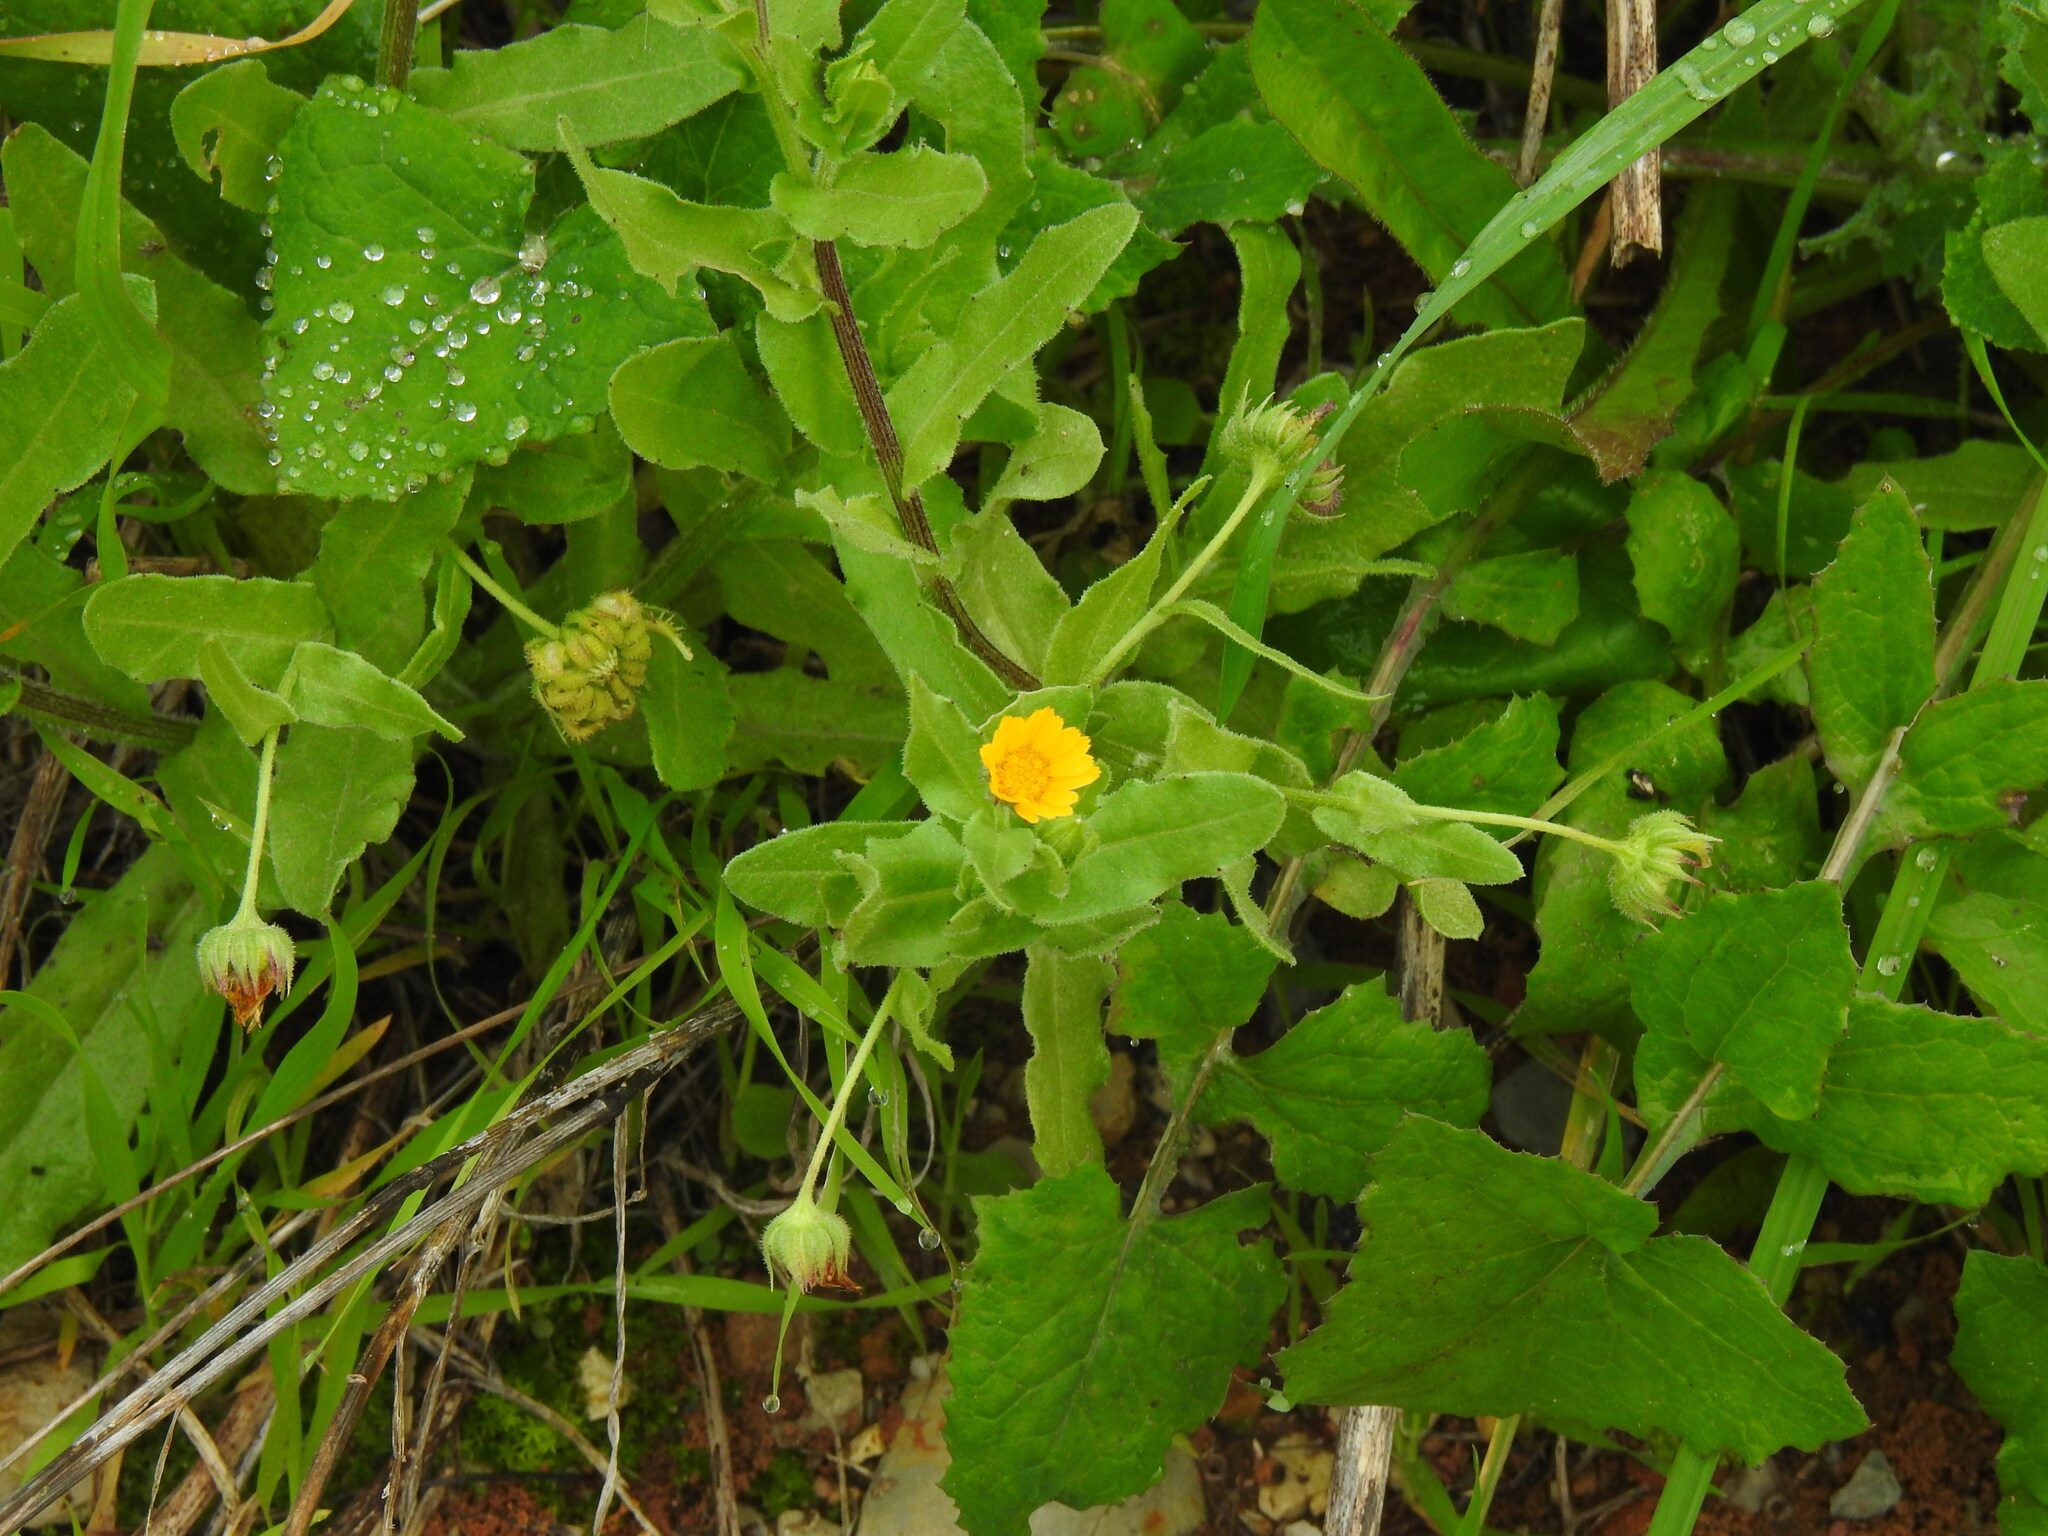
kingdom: Plantae
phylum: Tracheophyta
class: Magnoliopsida
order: Asterales
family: Asteraceae
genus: Calendula
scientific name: Calendula arvensis
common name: Field marigold
